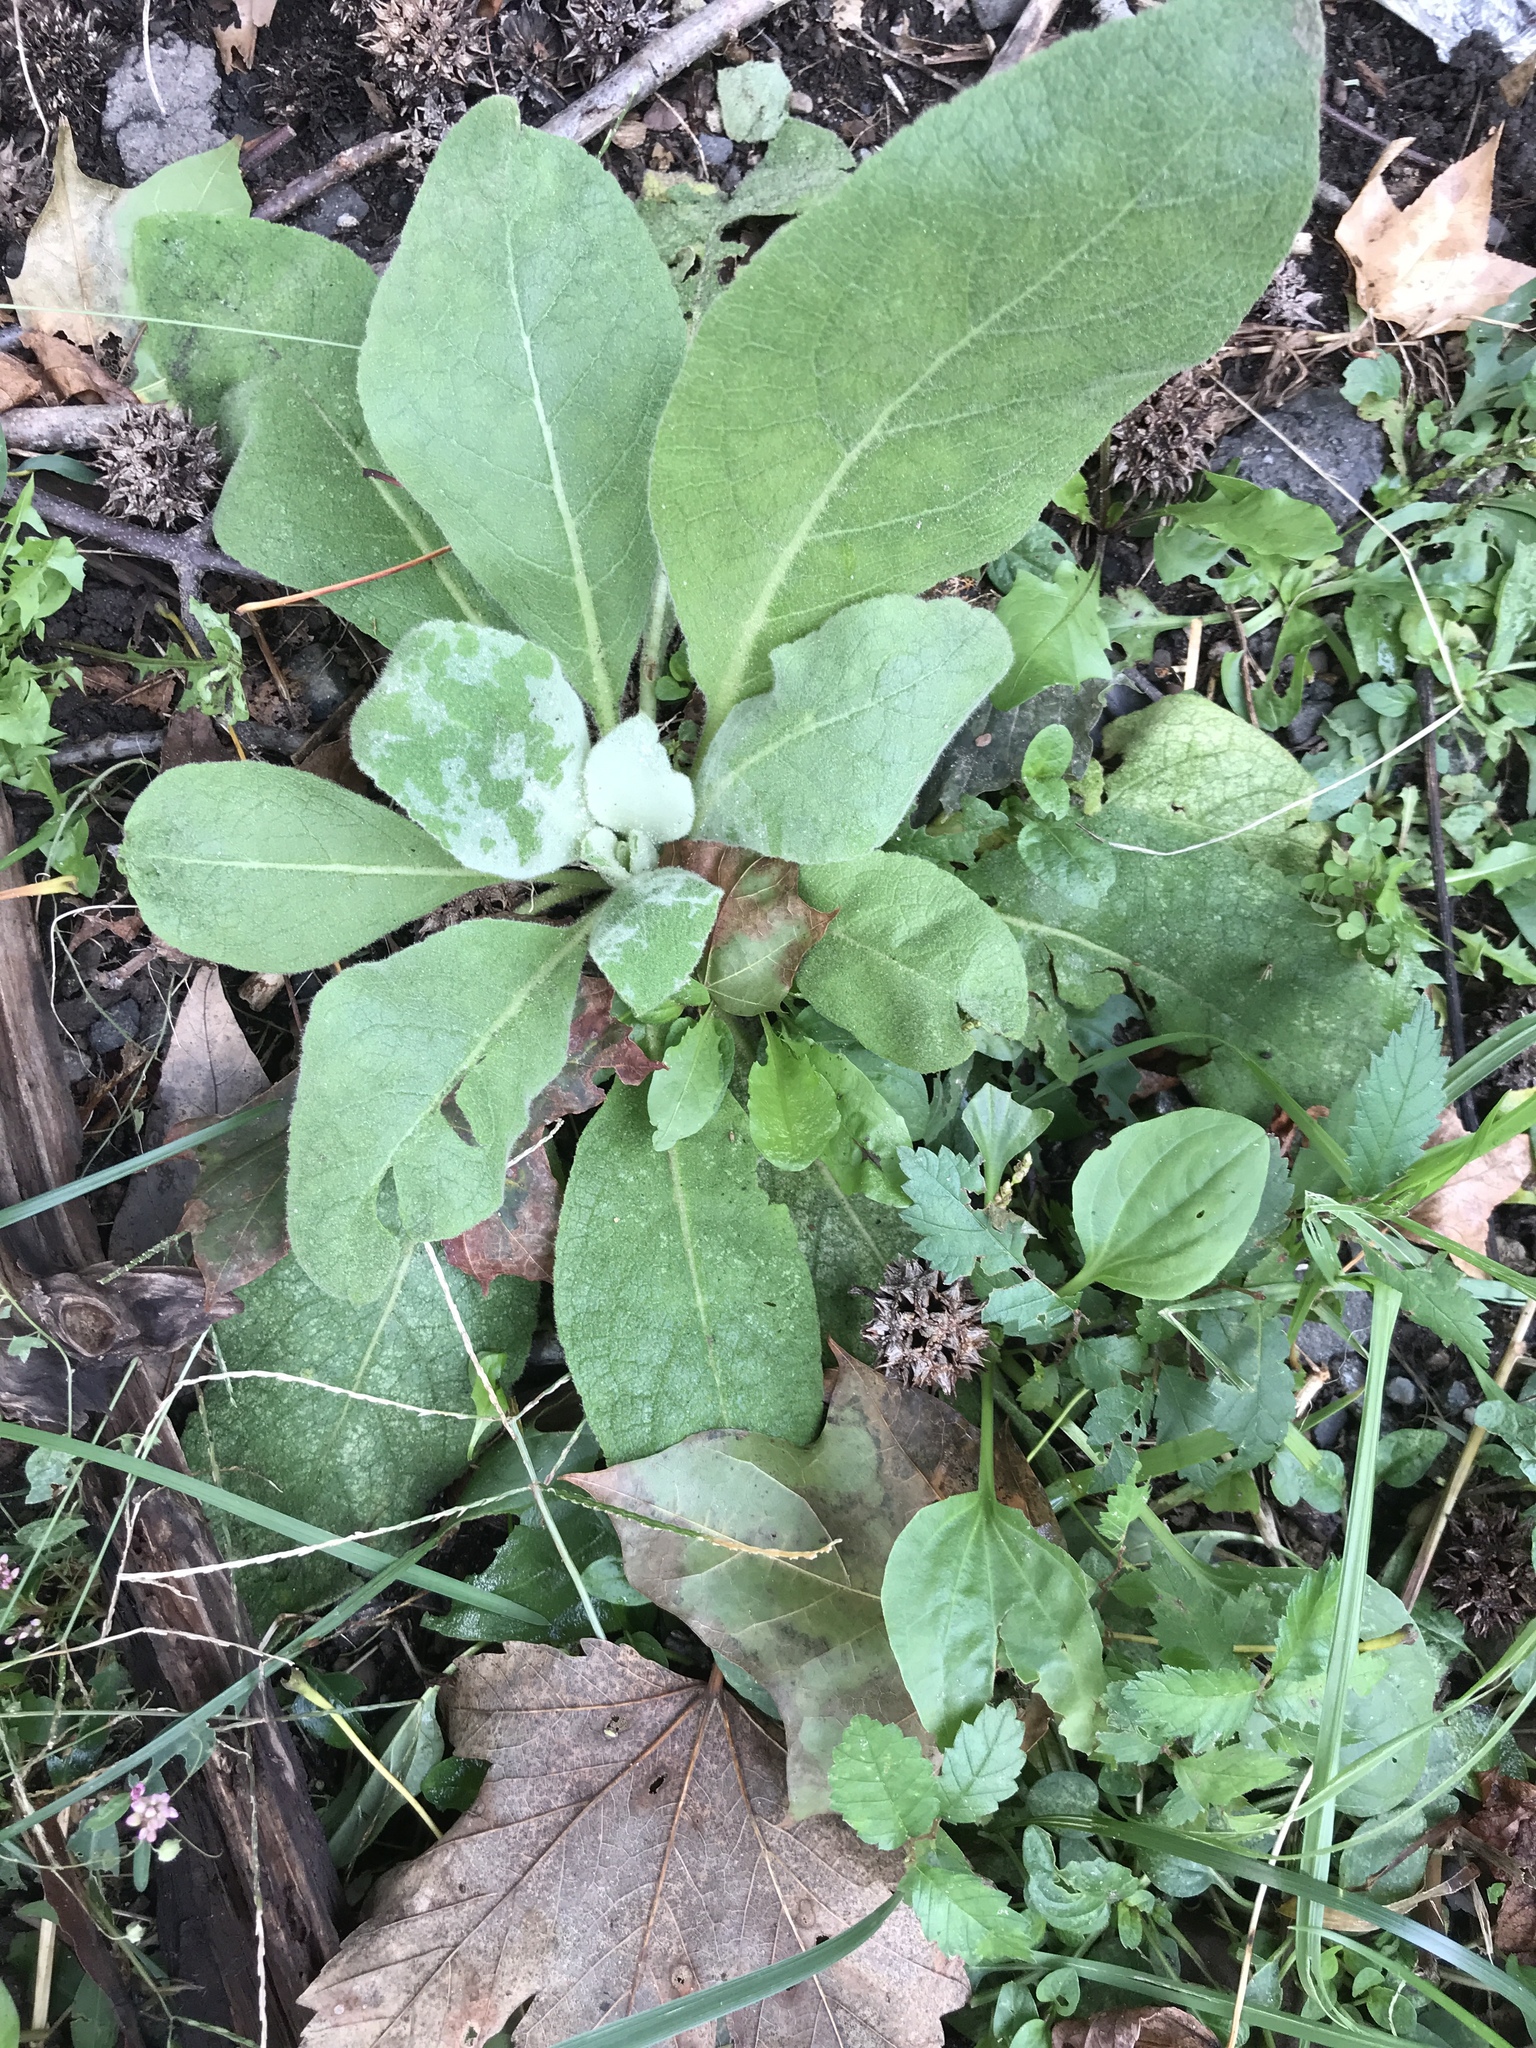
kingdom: Plantae
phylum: Tracheophyta
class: Magnoliopsida
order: Lamiales
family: Scrophulariaceae
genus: Verbascum
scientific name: Verbascum thapsus
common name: Common mullein
